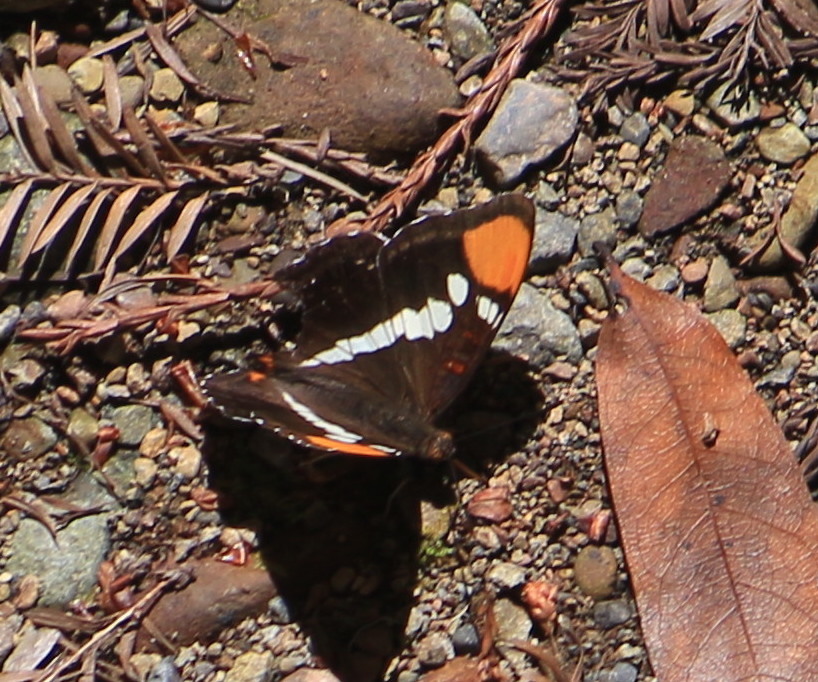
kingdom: Animalia
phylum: Arthropoda
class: Insecta
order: Lepidoptera
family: Nymphalidae
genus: Limenitis
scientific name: Limenitis bredowii
